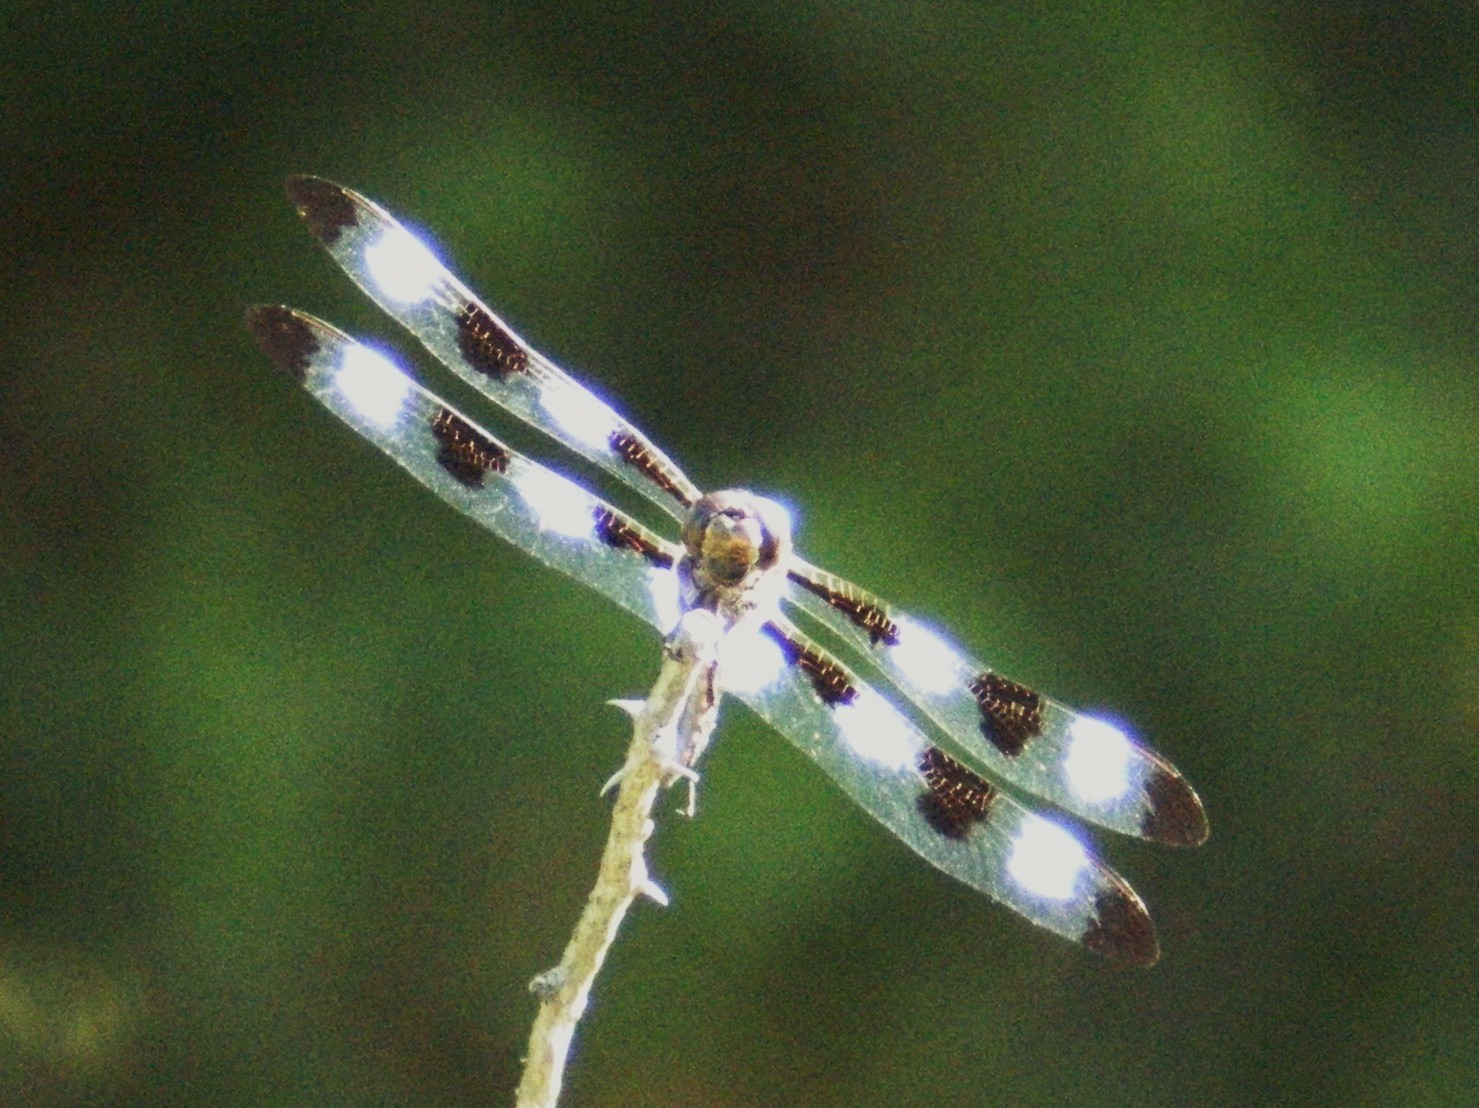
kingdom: Animalia
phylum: Arthropoda
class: Insecta
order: Odonata
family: Libellulidae
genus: Libellula
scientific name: Libellula pulchella
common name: Twelve-spotted skimmer
